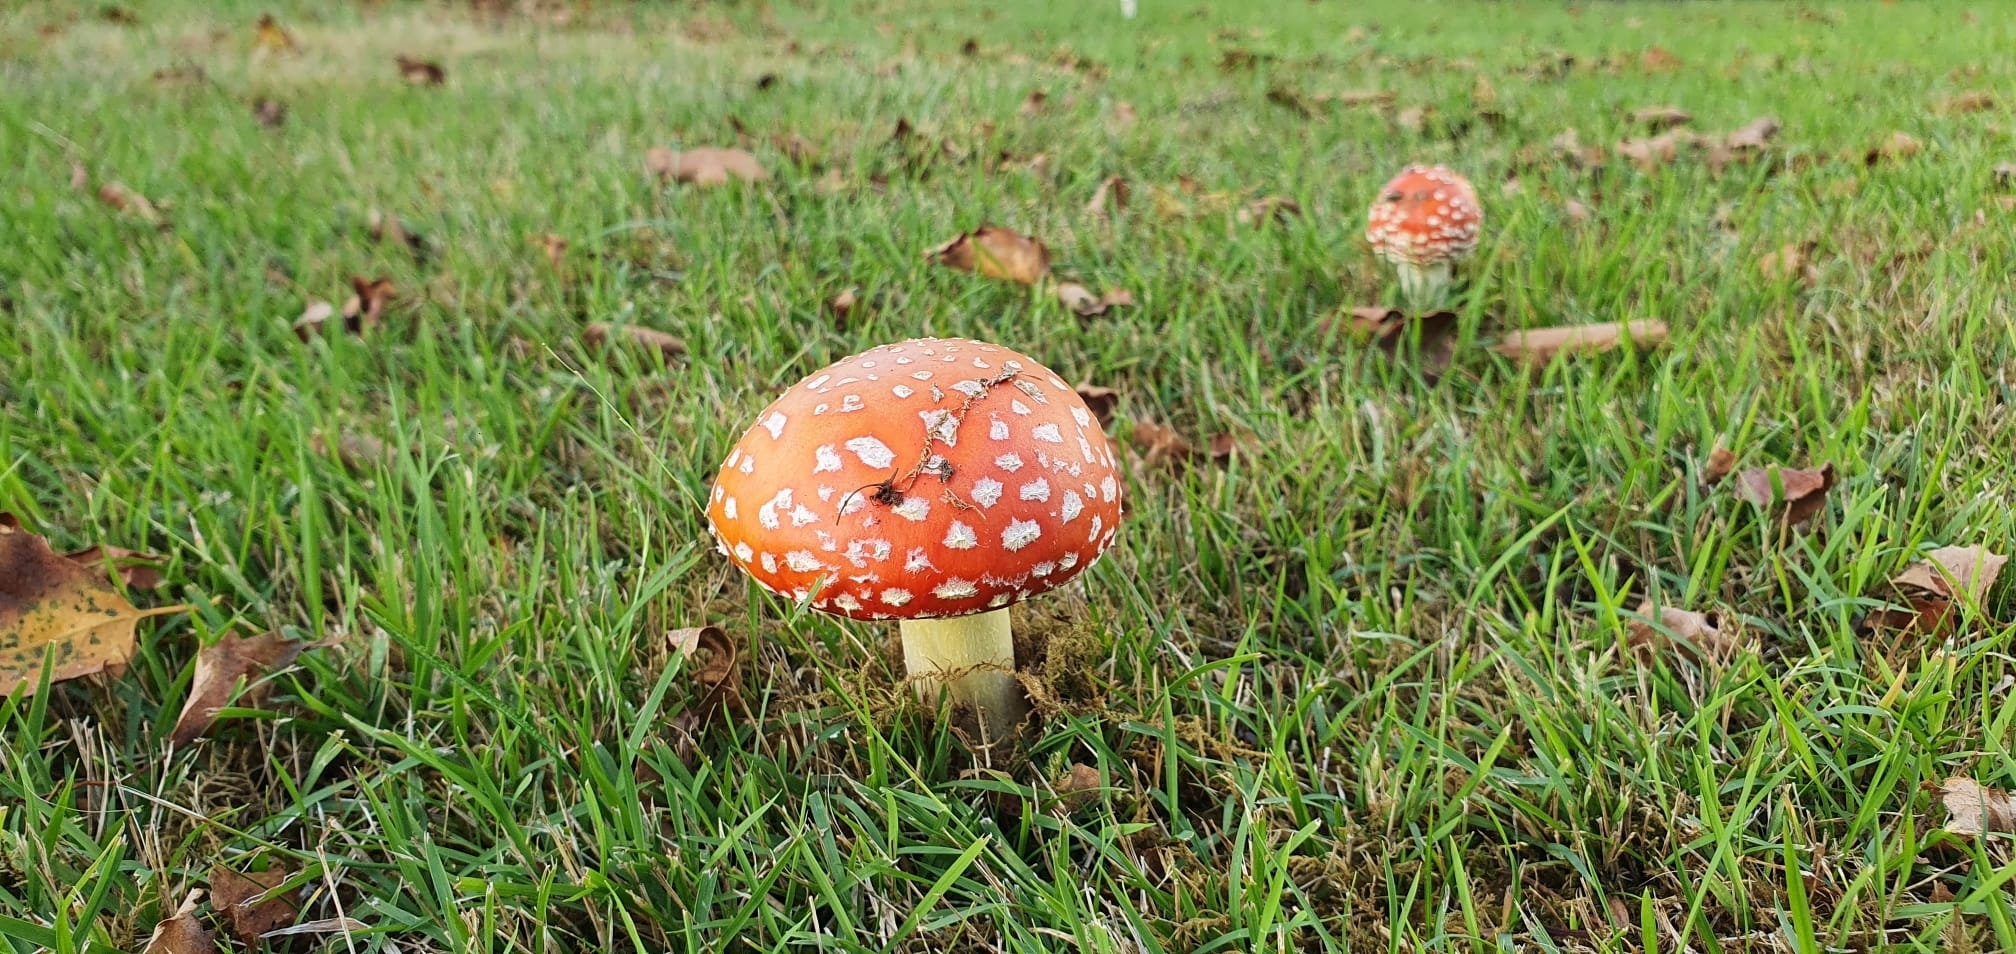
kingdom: Fungi
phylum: Basidiomycota
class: Agaricomycetes
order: Agaricales
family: Amanitaceae
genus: Amanita
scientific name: Amanita muscaria
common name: Fly agaric
